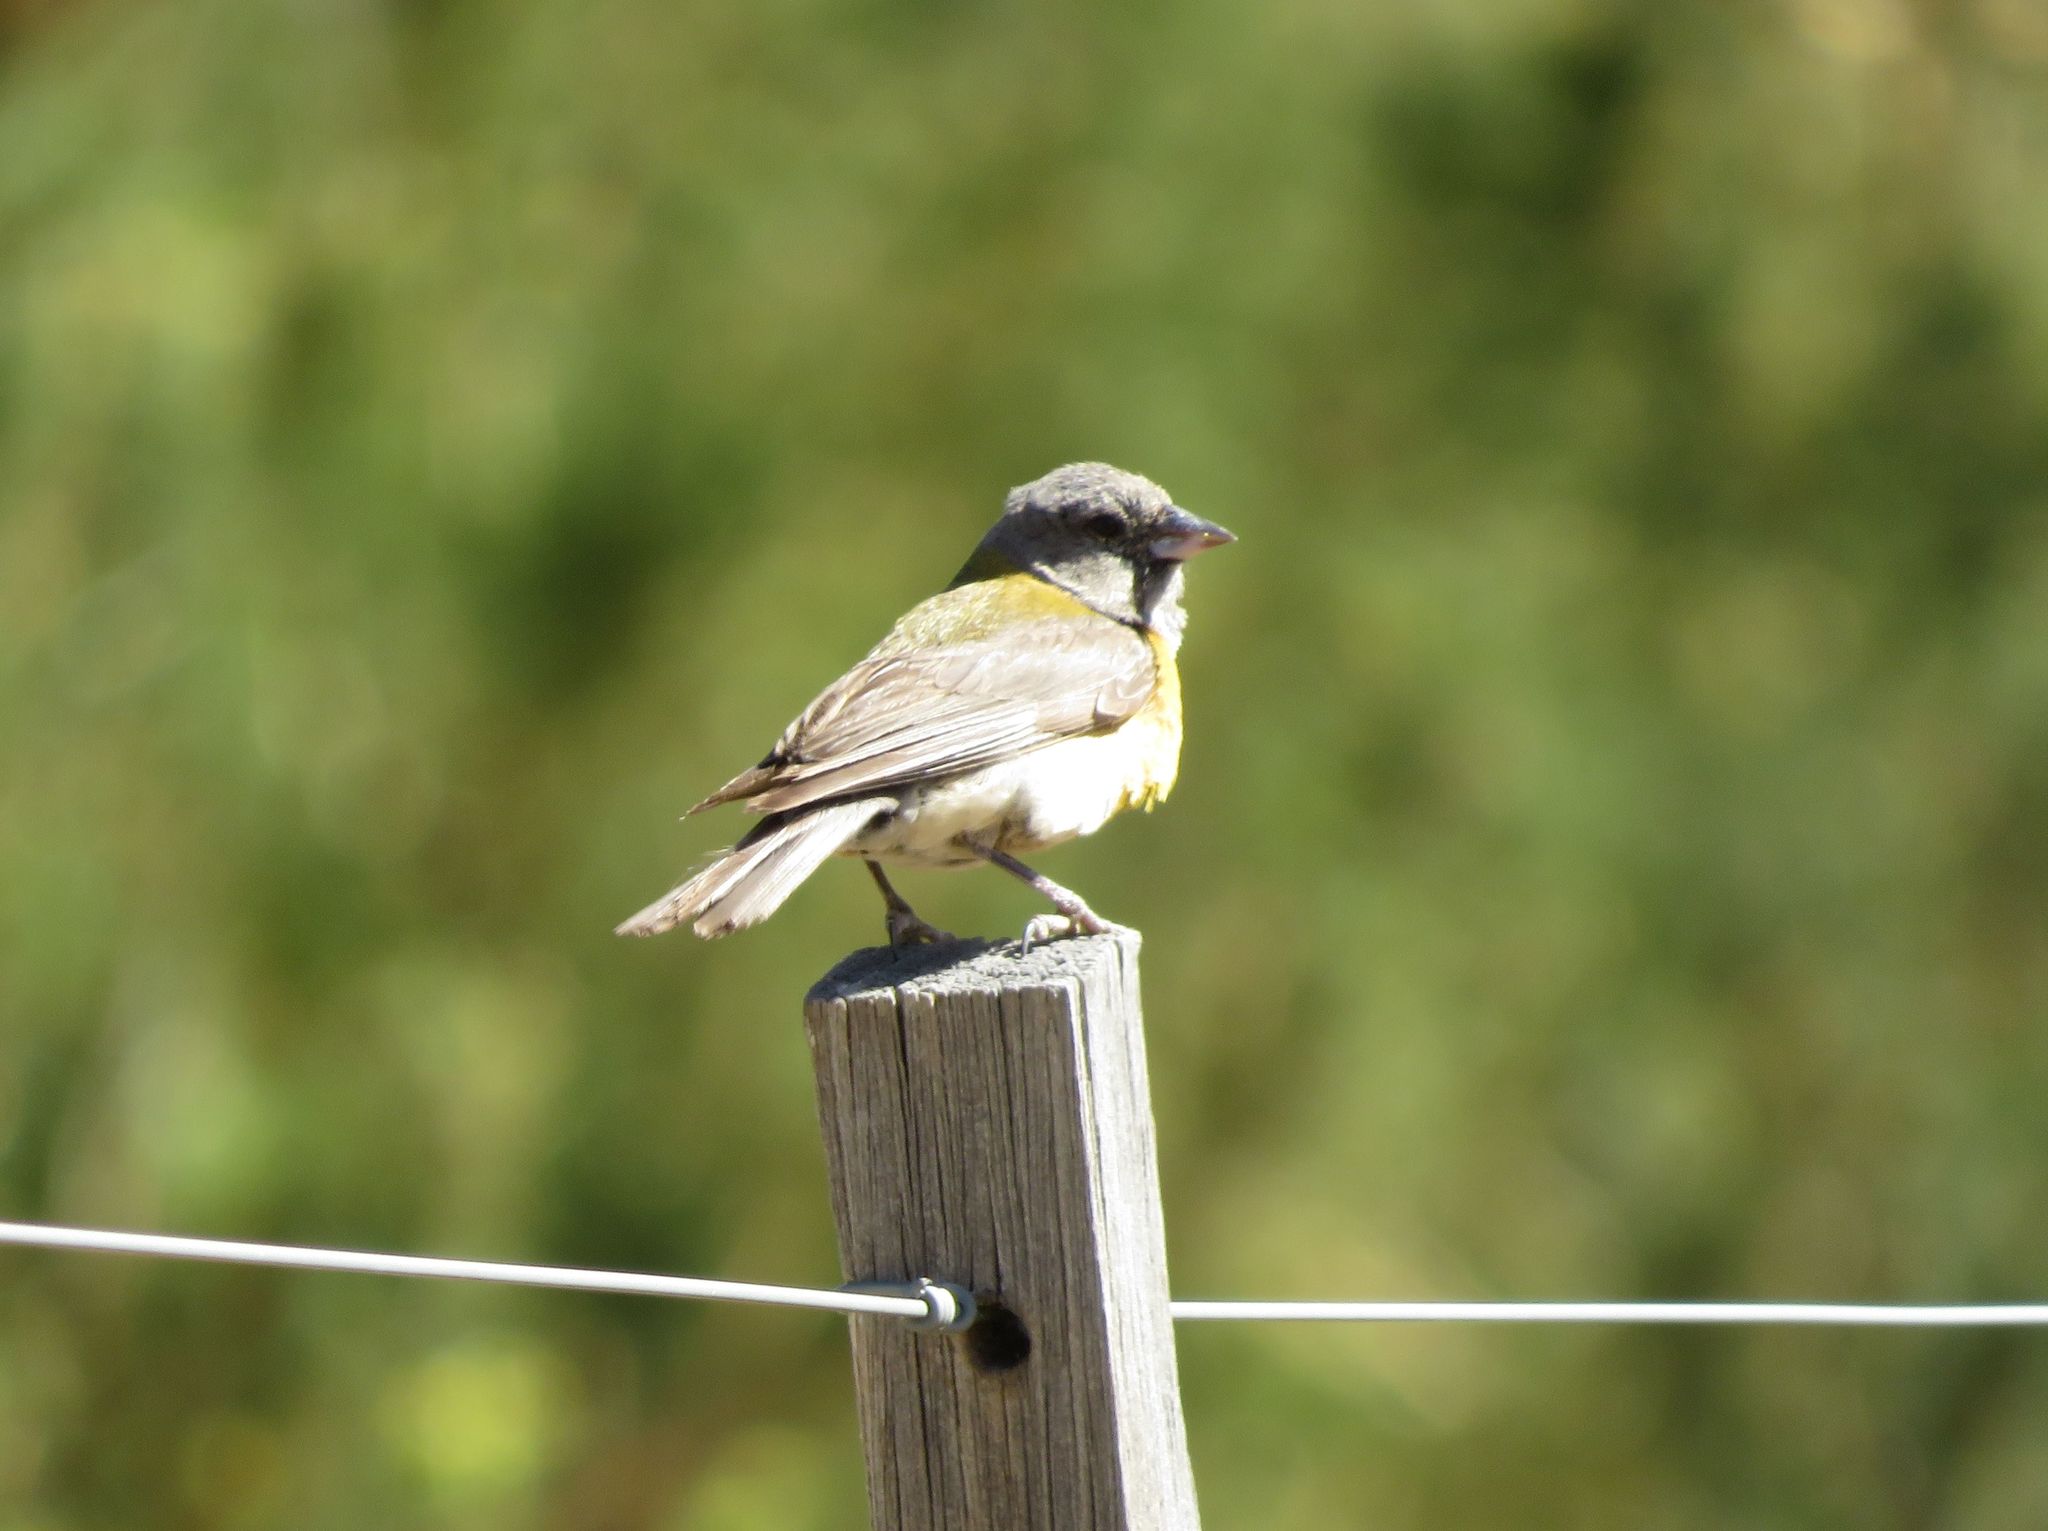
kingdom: Animalia
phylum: Chordata
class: Aves
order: Passeriformes
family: Thraupidae
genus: Phrygilus
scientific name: Phrygilus gayi
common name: Grey-hooded sierra finch
